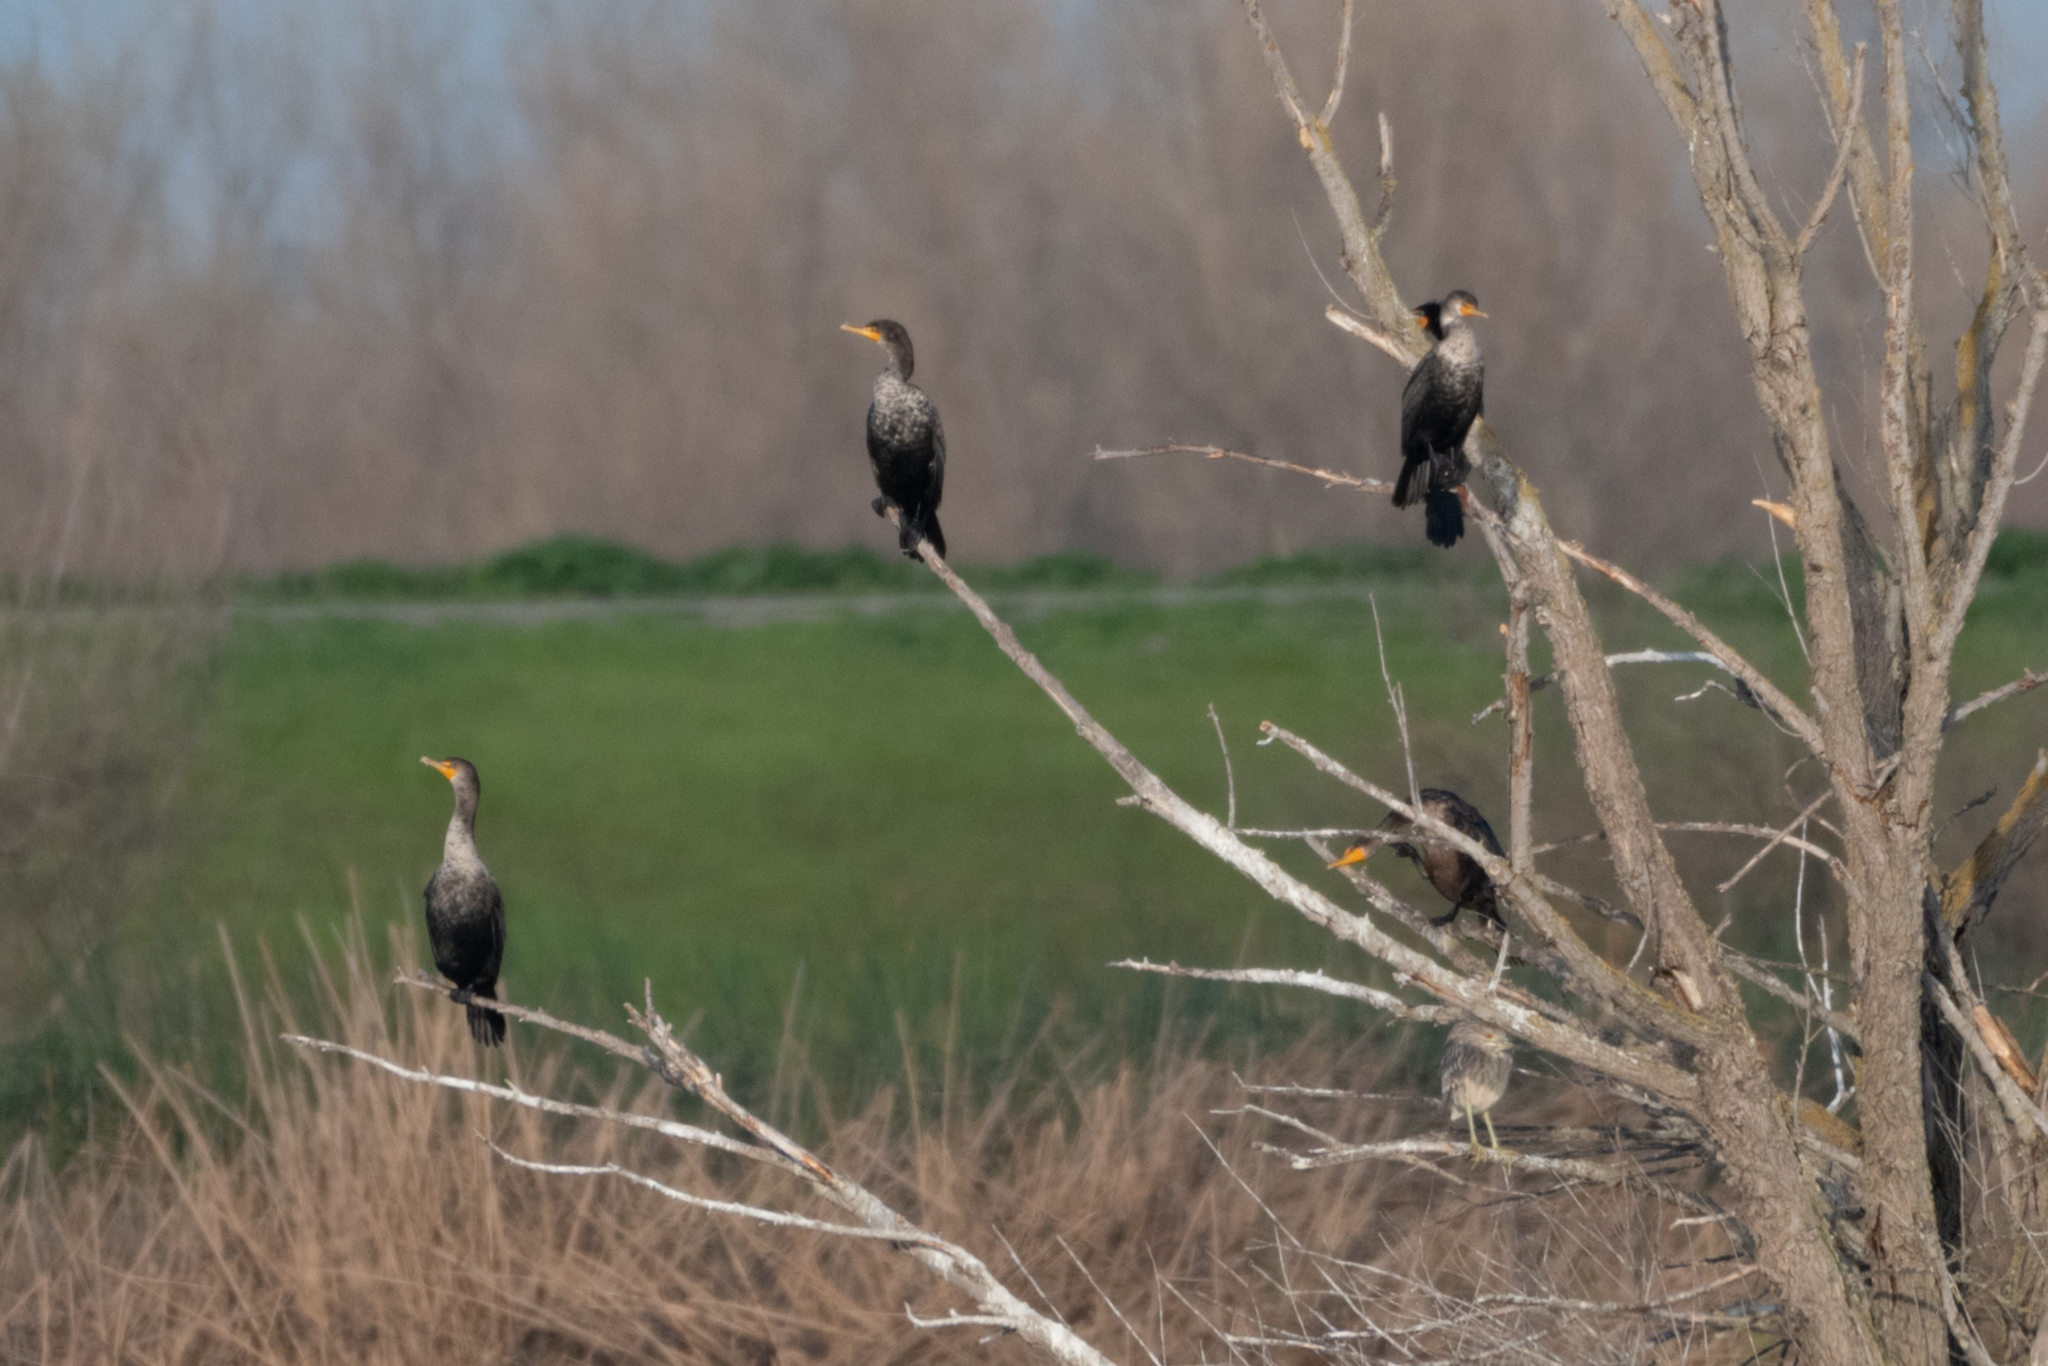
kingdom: Animalia
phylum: Chordata
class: Aves
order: Suliformes
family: Phalacrocoracidae
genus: Phalacrocorax
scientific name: Phalacrocorax auritus
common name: Double-crested cormorant
